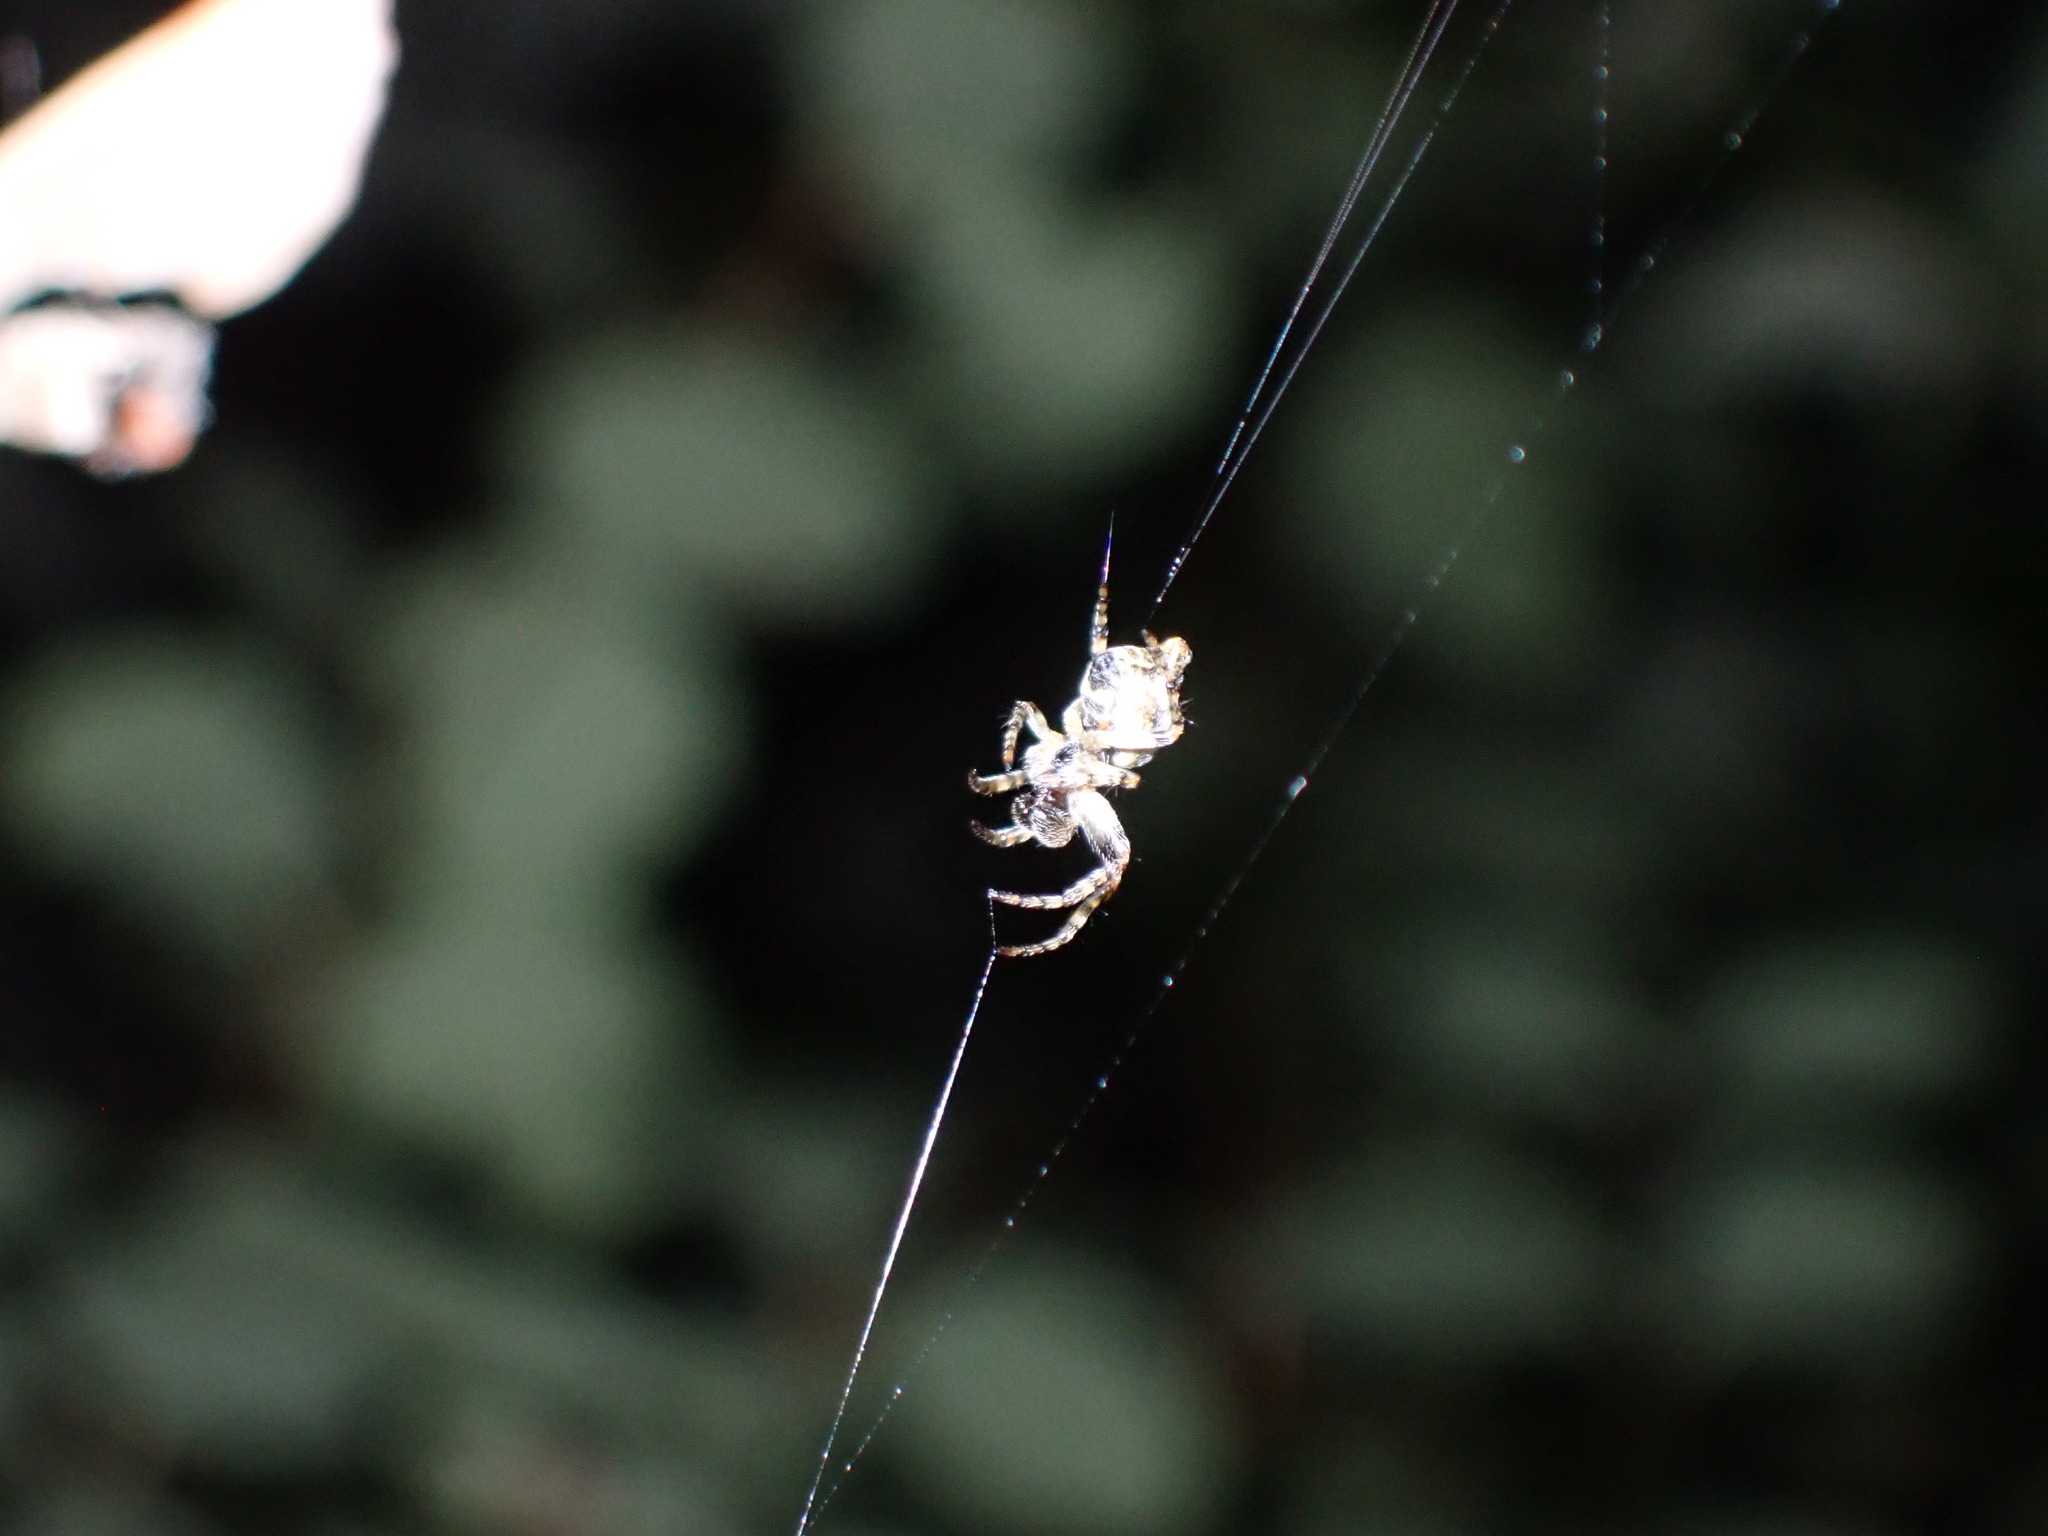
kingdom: Animalia
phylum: Arthropoda
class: Arachnida
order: Araneae
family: Araneidae
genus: Cyclosa
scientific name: Cyclosa conica
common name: Conical trashline orbweaver
